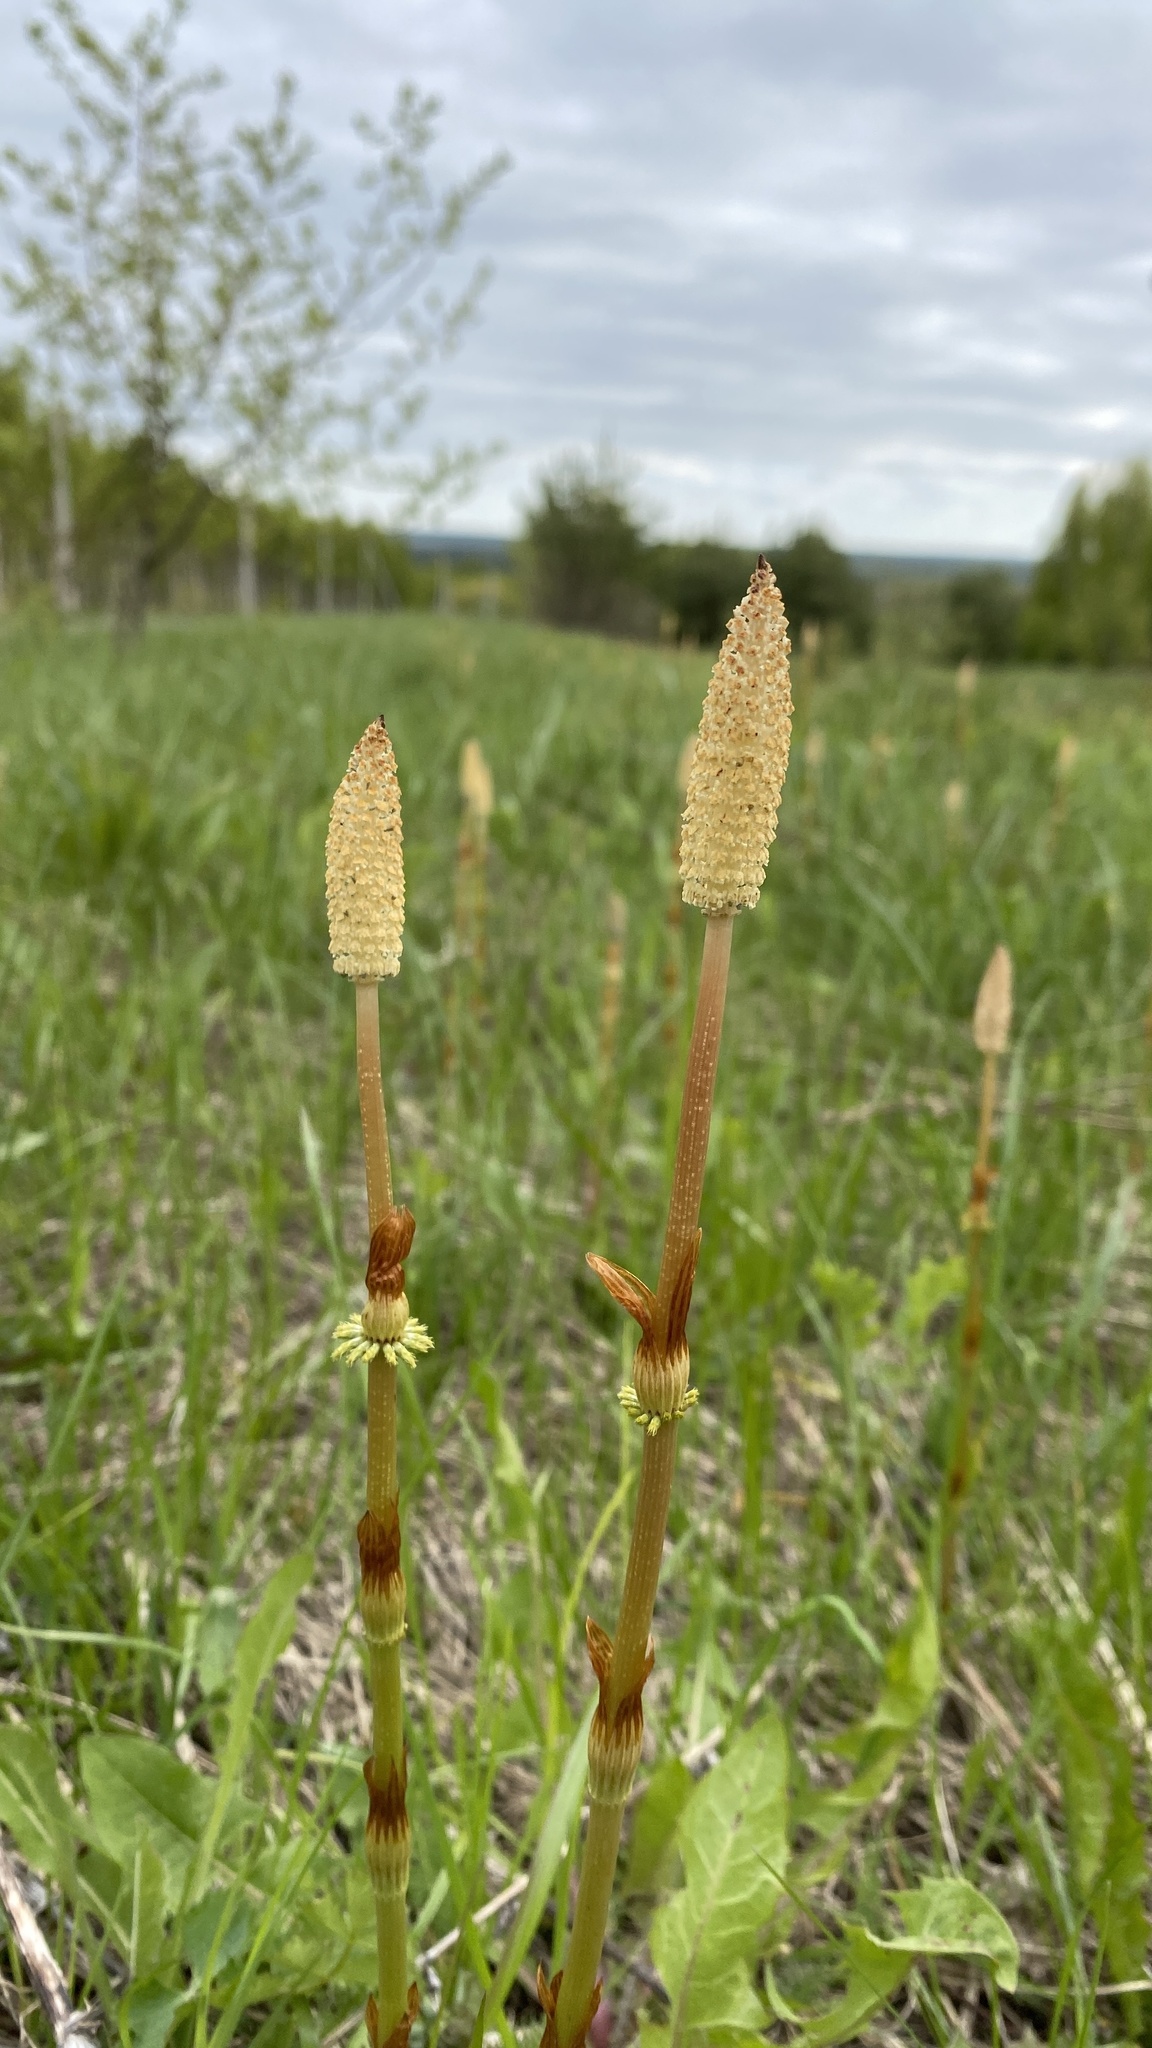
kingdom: Plantae
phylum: Tracheophyta
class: Polypodiopsida
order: Equisetales
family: Equisetaceae
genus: Equisetum
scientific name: Equisetum sylvaticum
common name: Wood horsetail
